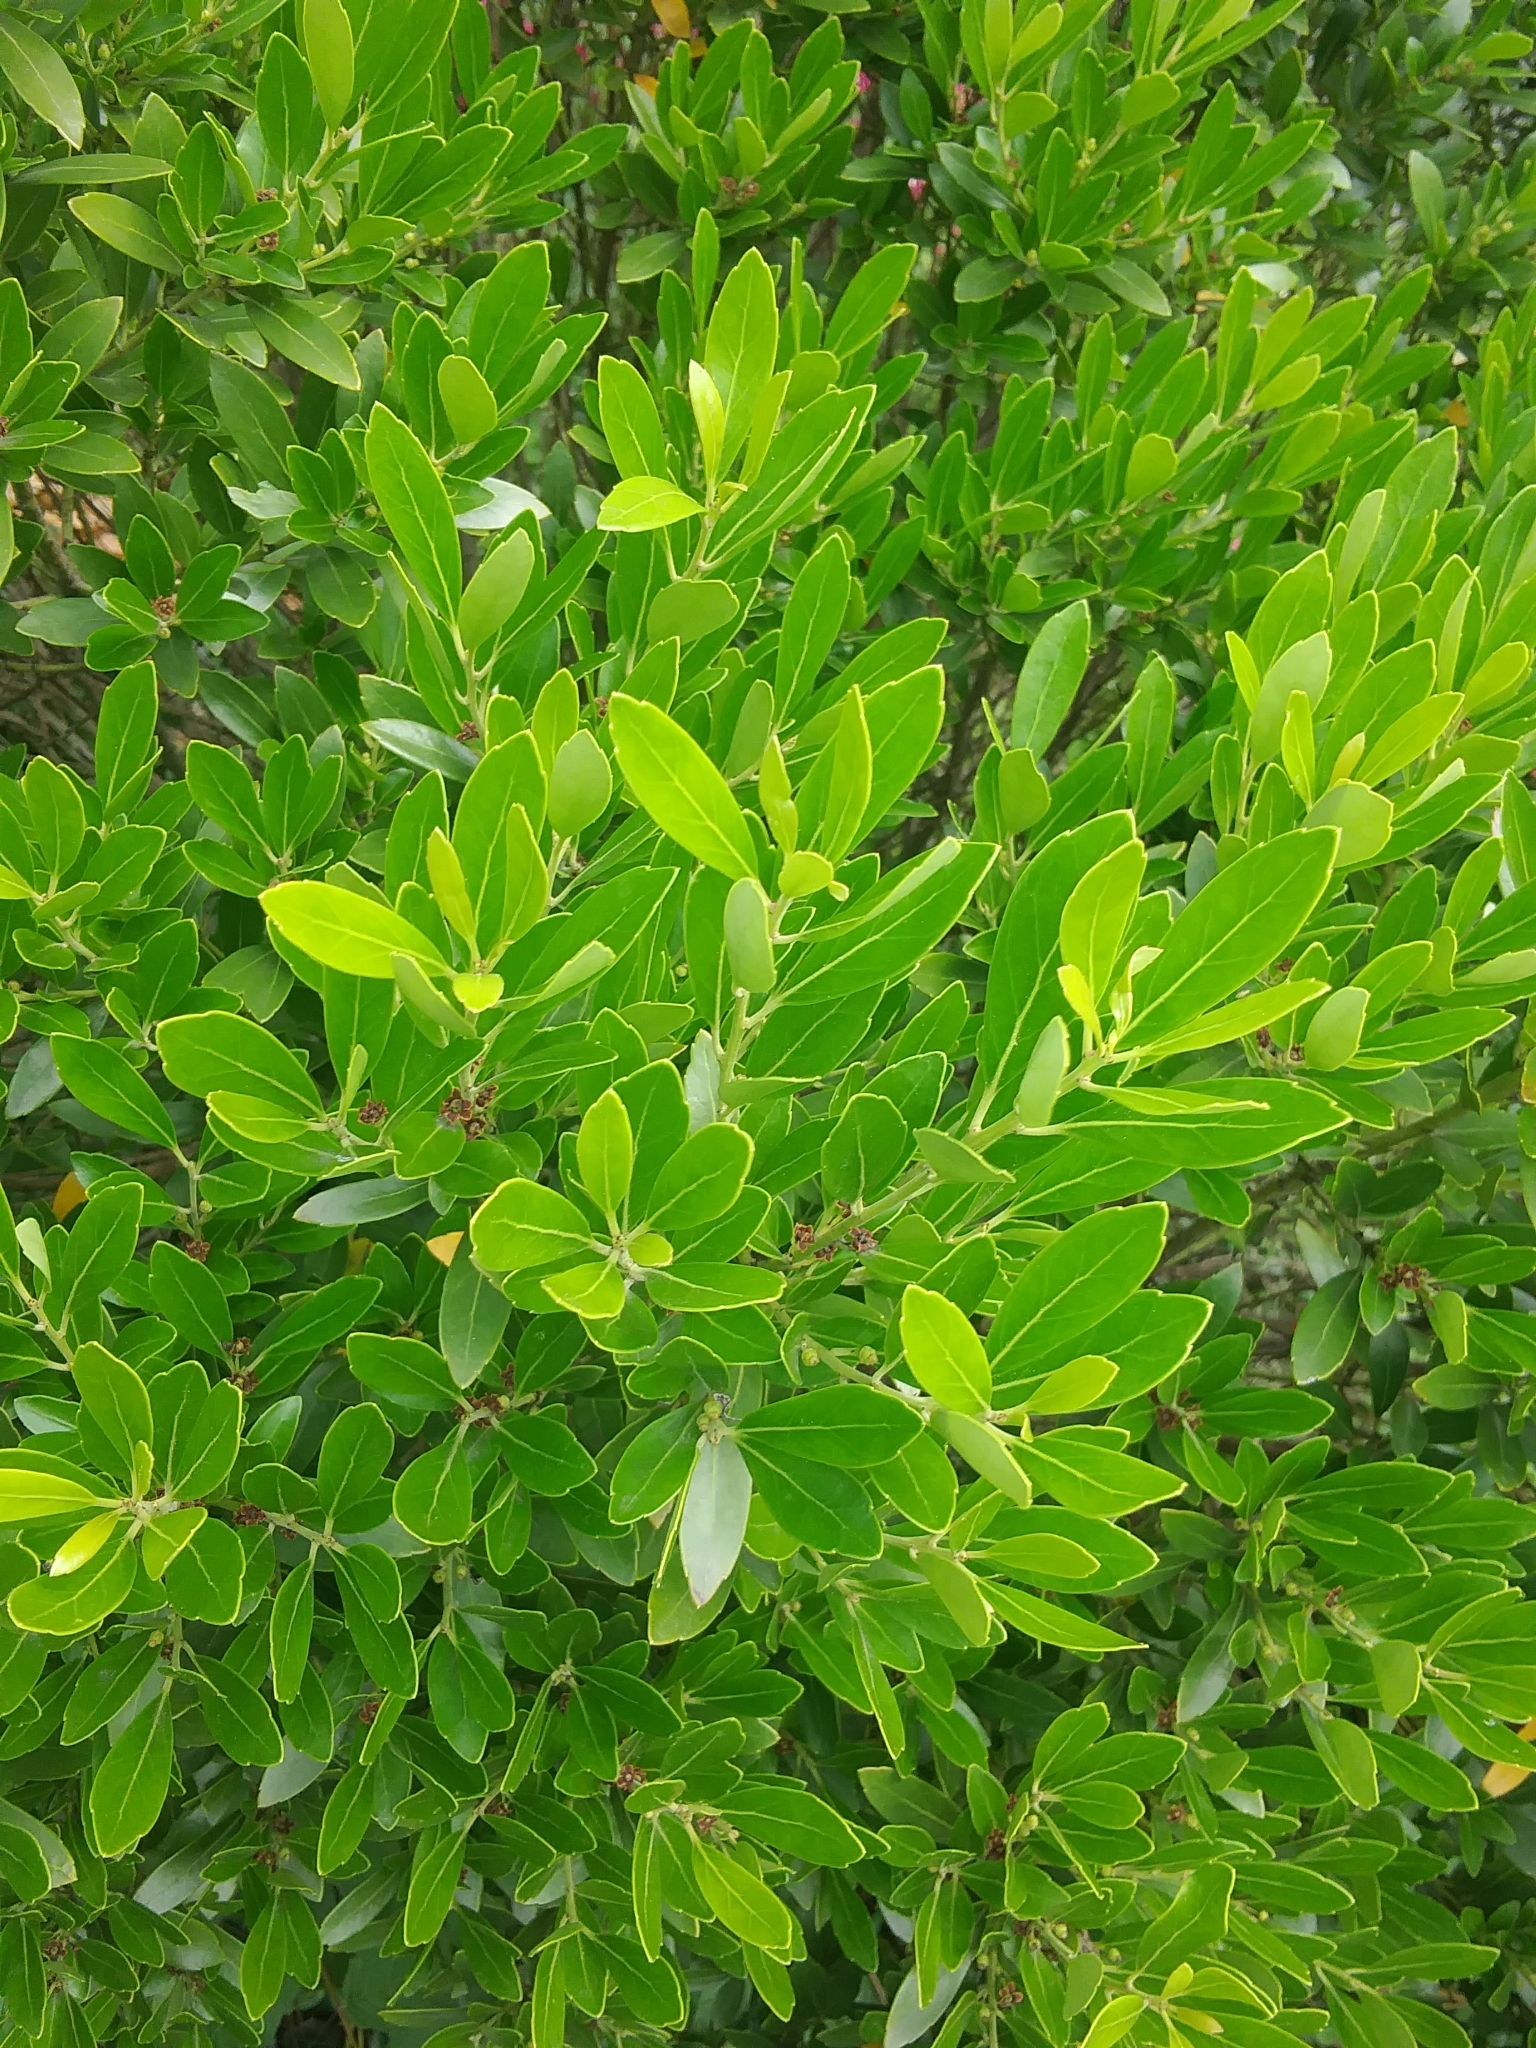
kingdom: Plantae
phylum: Tracheophyta
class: Magnoliopsida
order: Aquifoliales
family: Aquifoliaceae
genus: Ilex
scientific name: Ilex glabra
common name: Bitter gallberry
